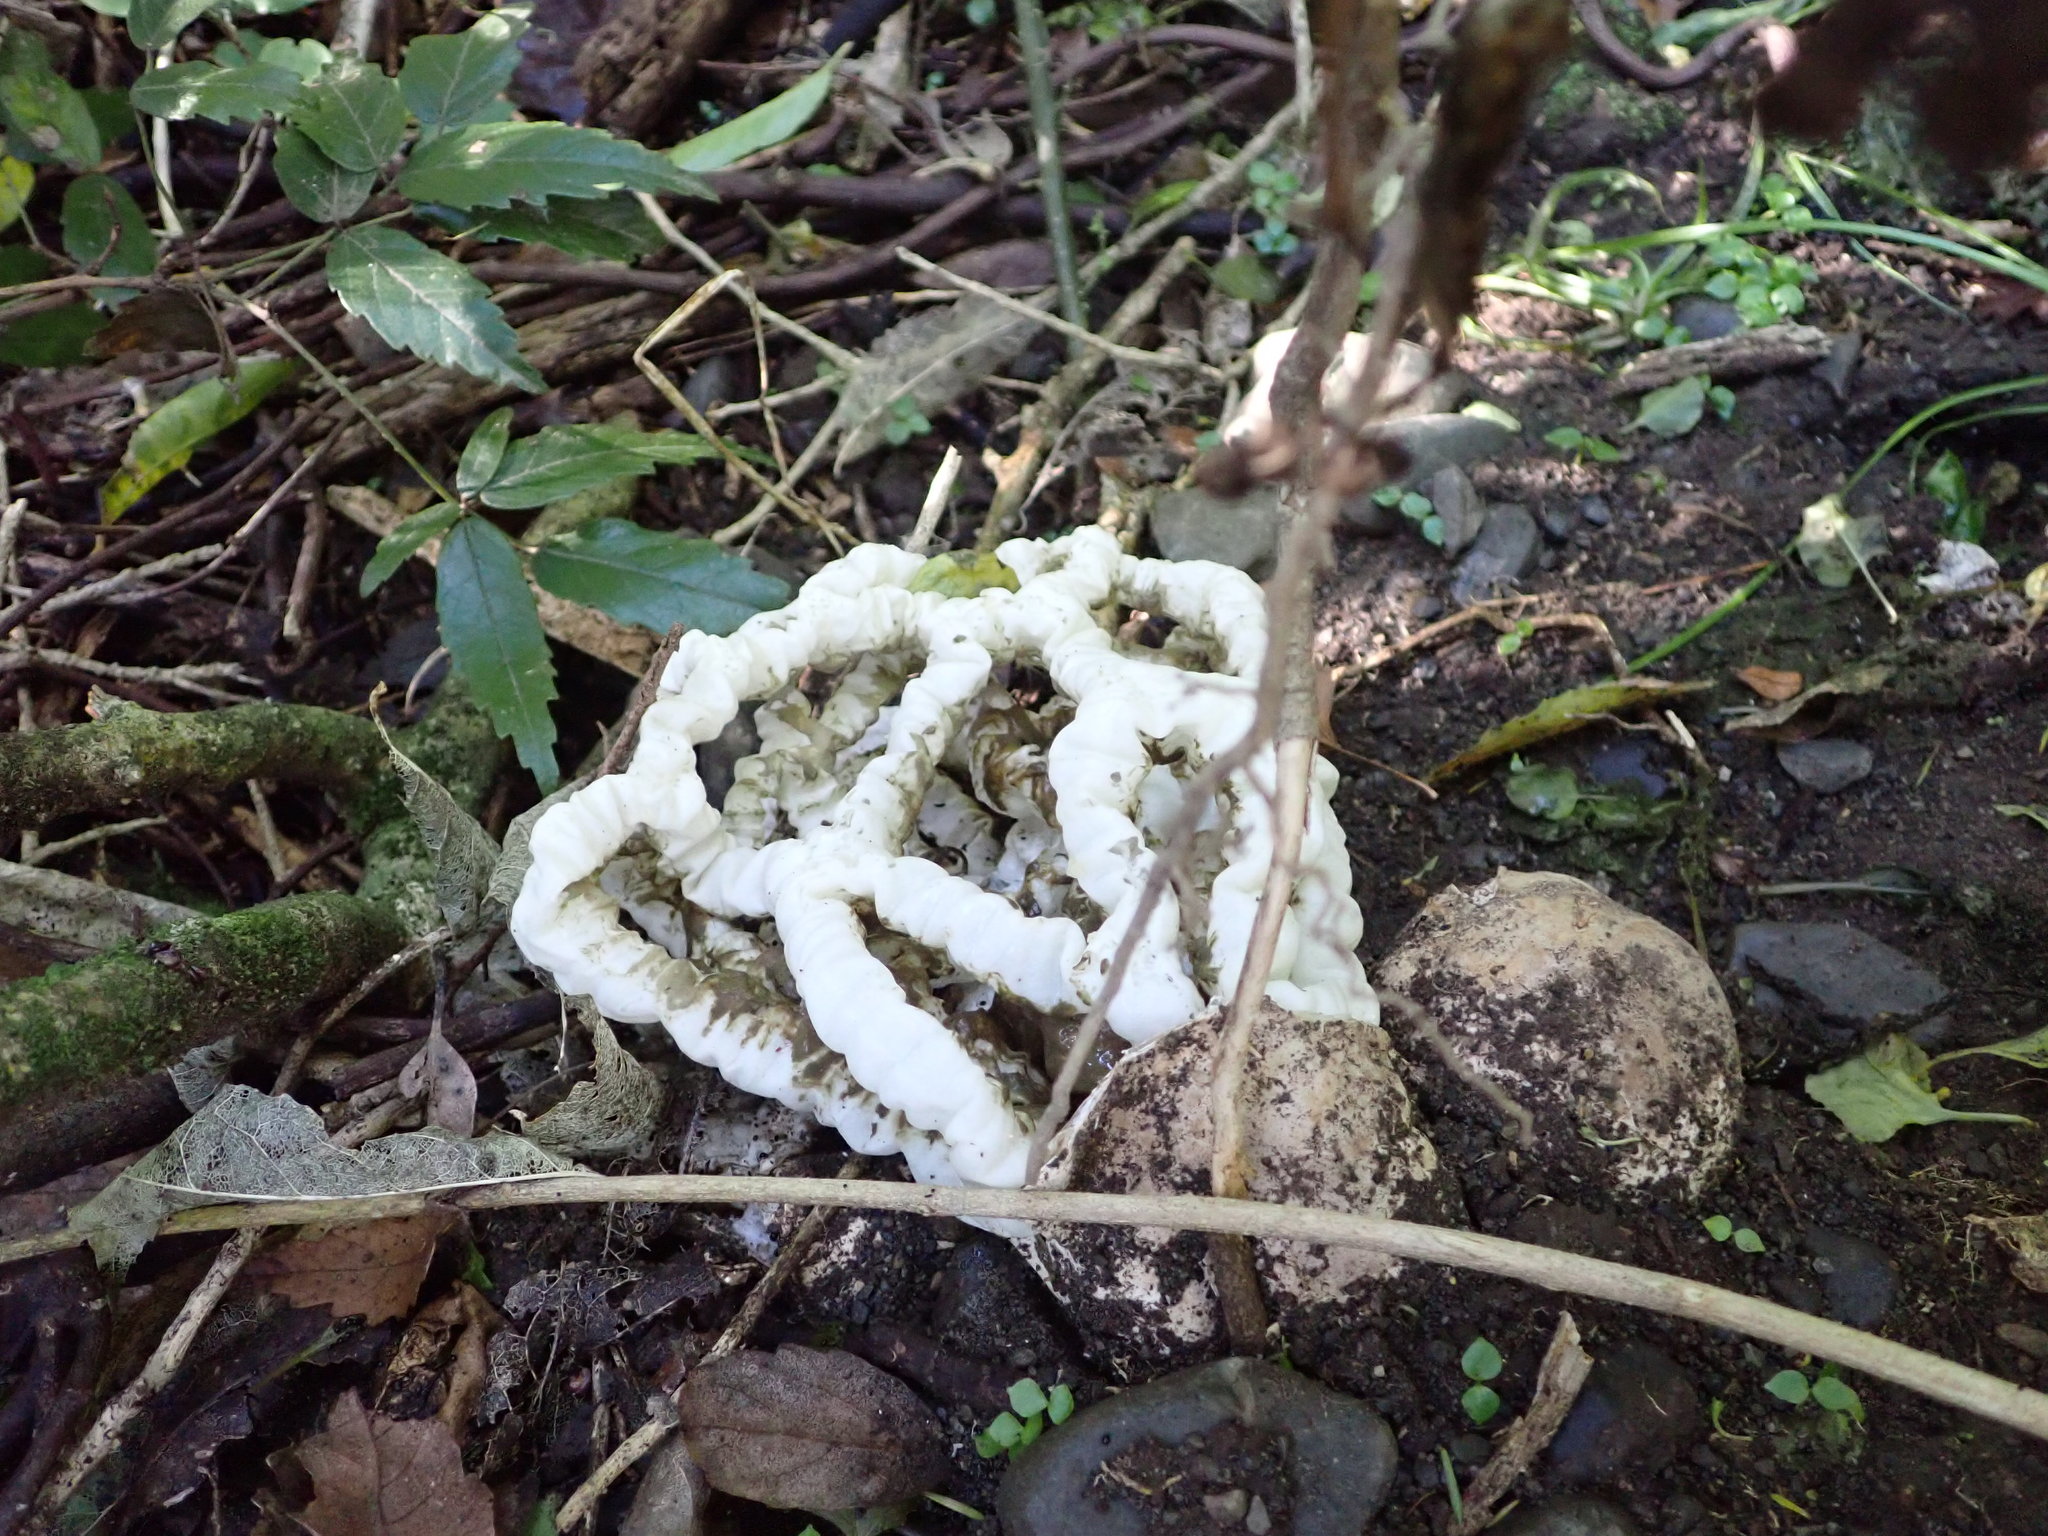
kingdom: Fungi
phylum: Basidiomycota
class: Agaricomycetes
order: Phallales
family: Phallaceae
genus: Ileodictyon
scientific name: Ileodictyon cibarium
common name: Basket fungus
